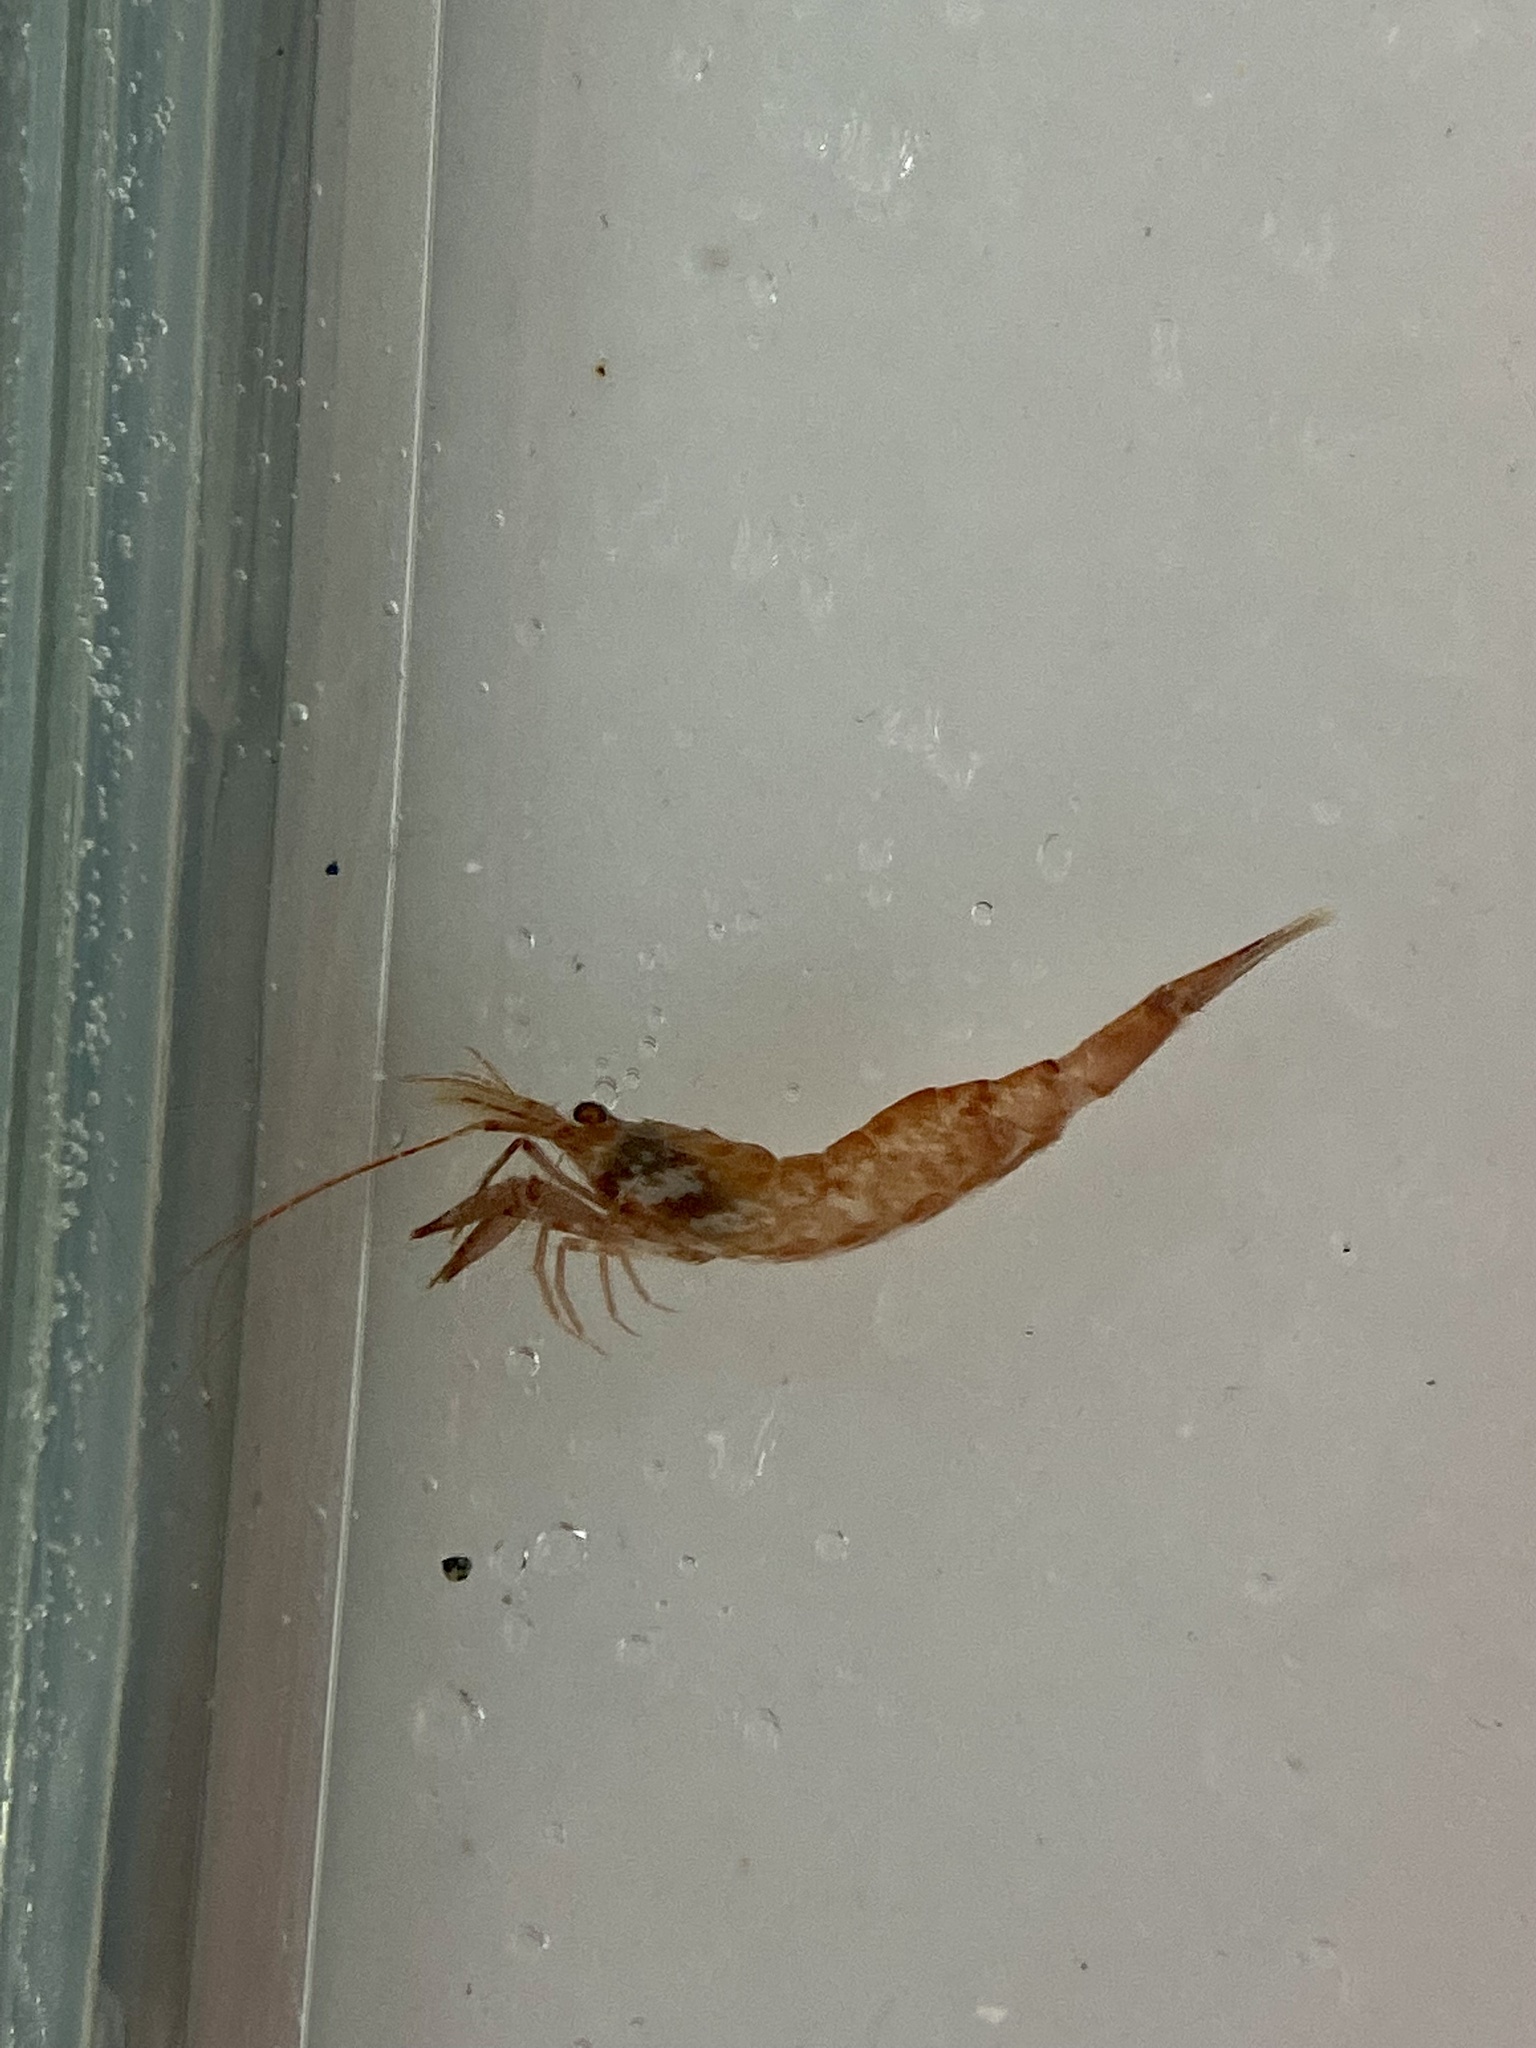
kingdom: Animalia
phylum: Arthropoda
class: Malacostraca
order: Decapoda
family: Crangonidae
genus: Pontophilus
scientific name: Pontophilus norvegicus
